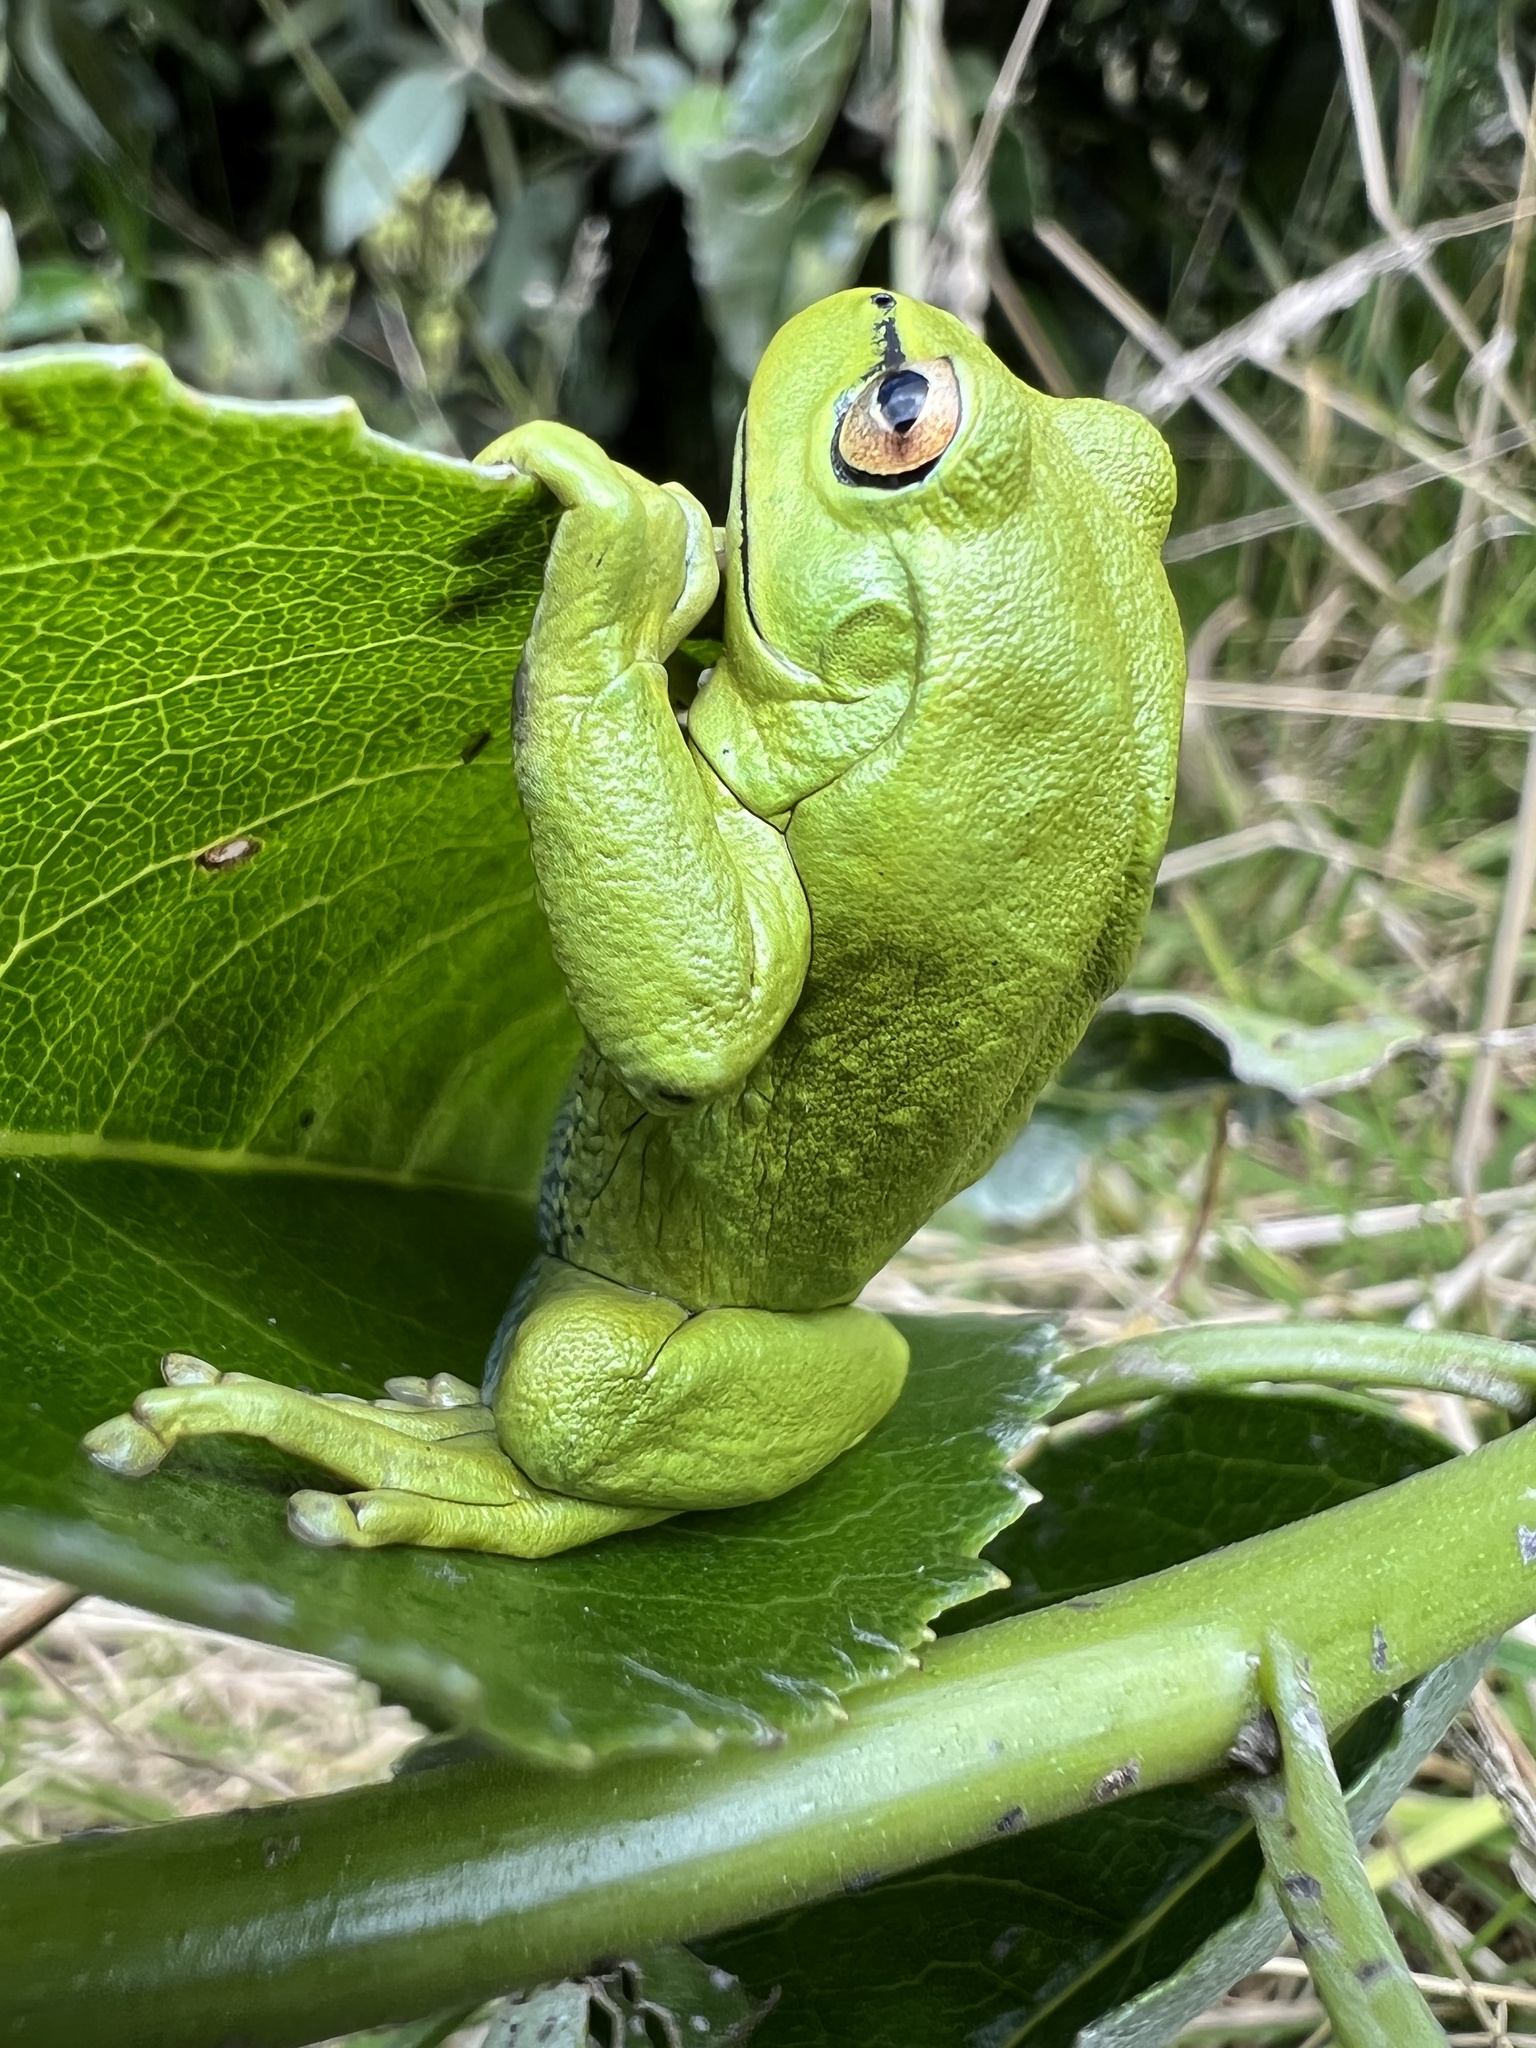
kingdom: Animalia
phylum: Chordata
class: Amphibia
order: Anura
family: Hylidae
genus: Dendropsophus
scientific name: Dendropsophus molitor
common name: Green dotted treefrog
